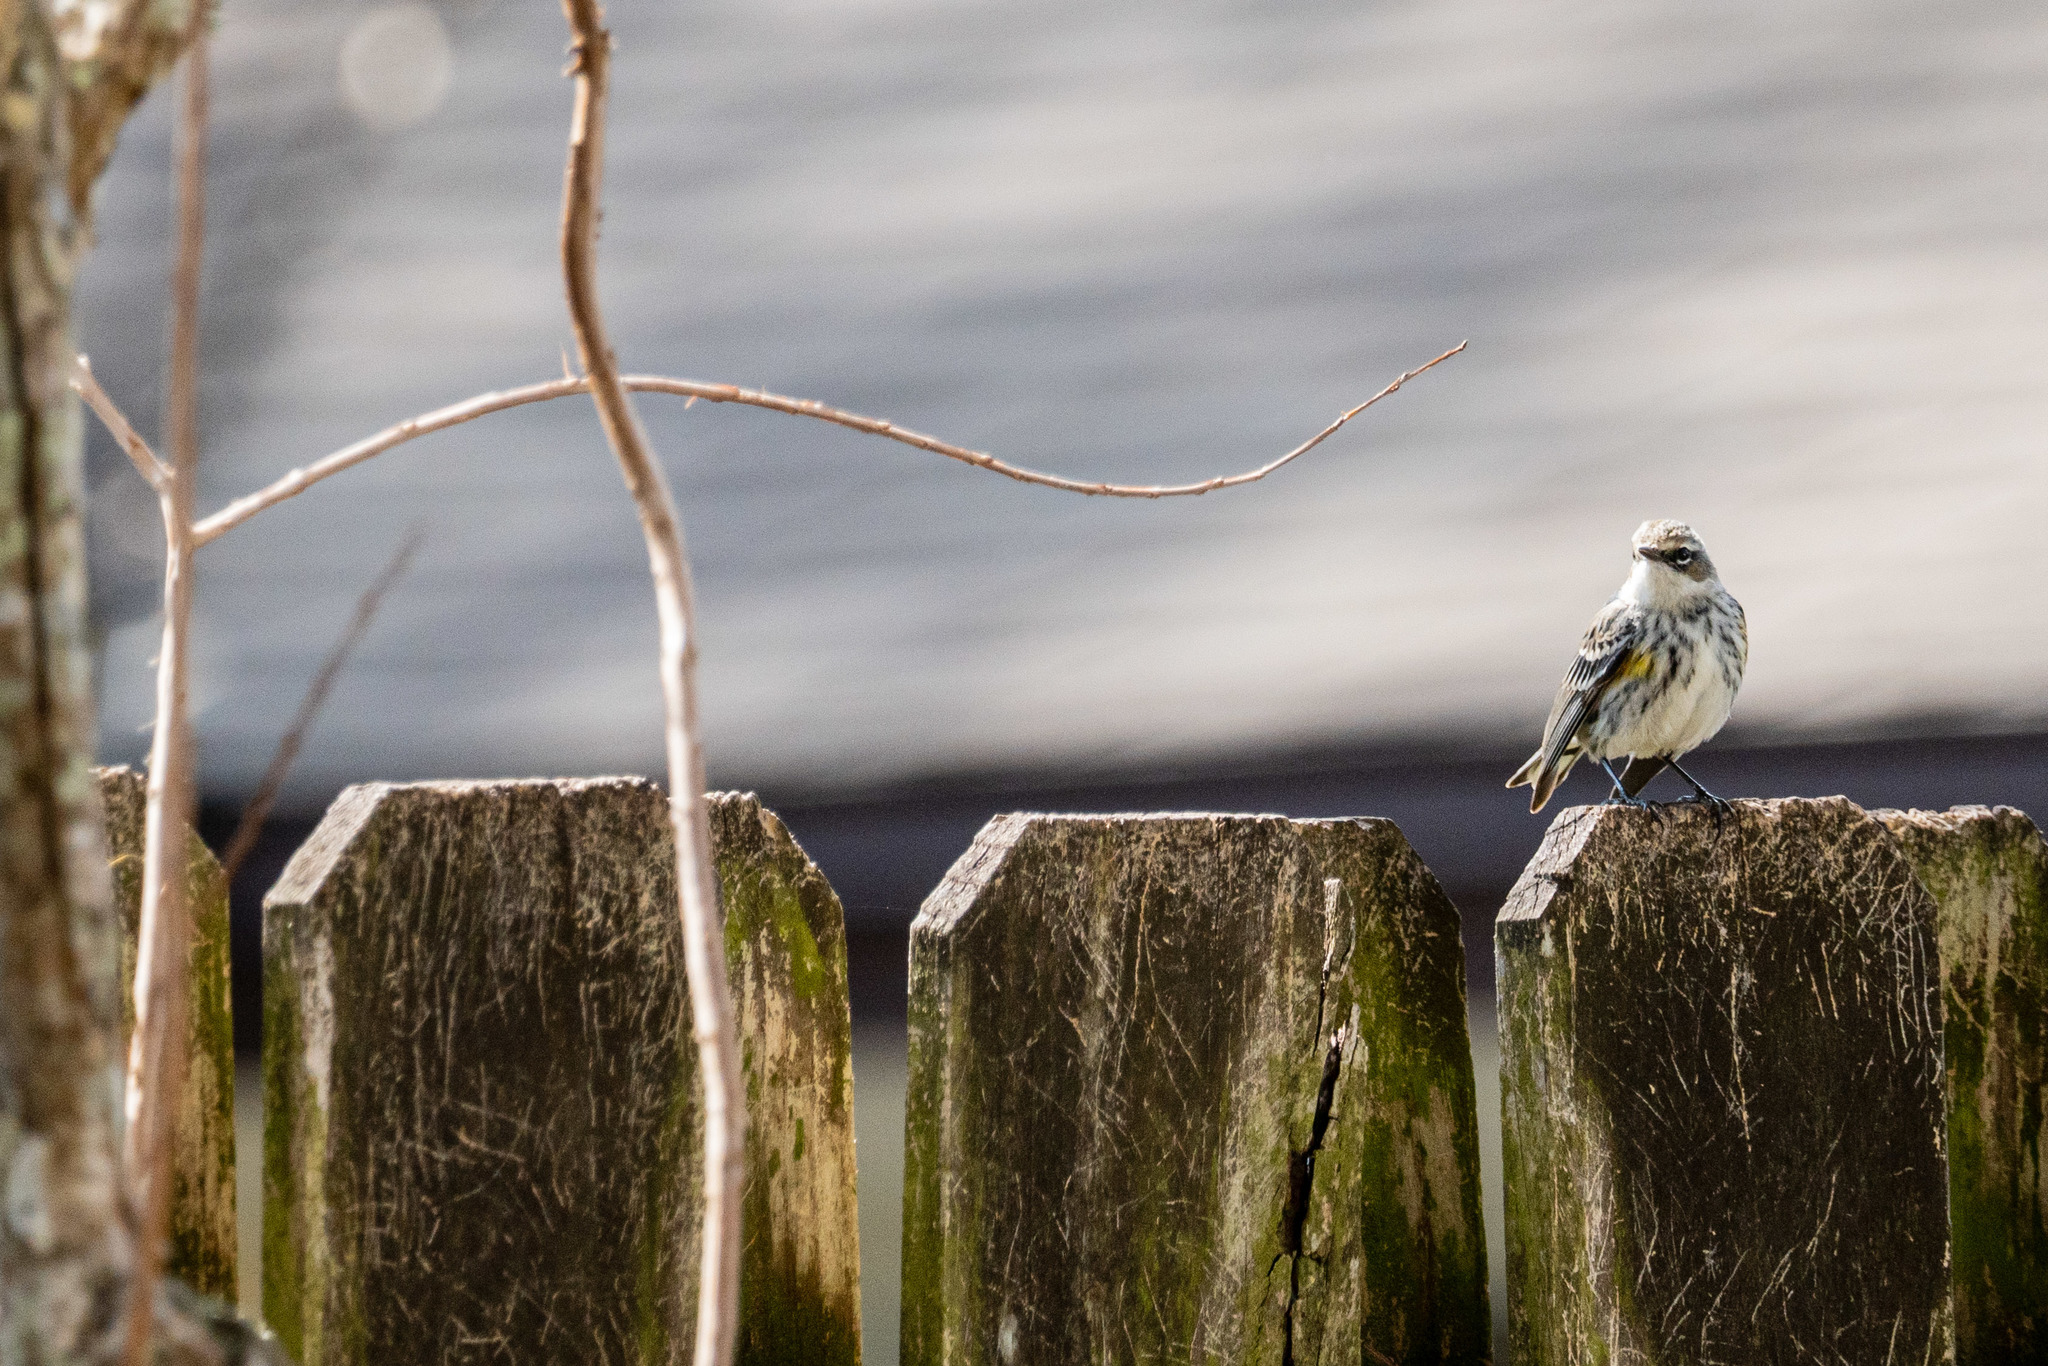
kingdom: Animalia
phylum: Chordata
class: Aves
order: Passeriformes
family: Parulidae
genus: Setophaga
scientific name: Setophaga coronata
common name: Myrtle warbler
